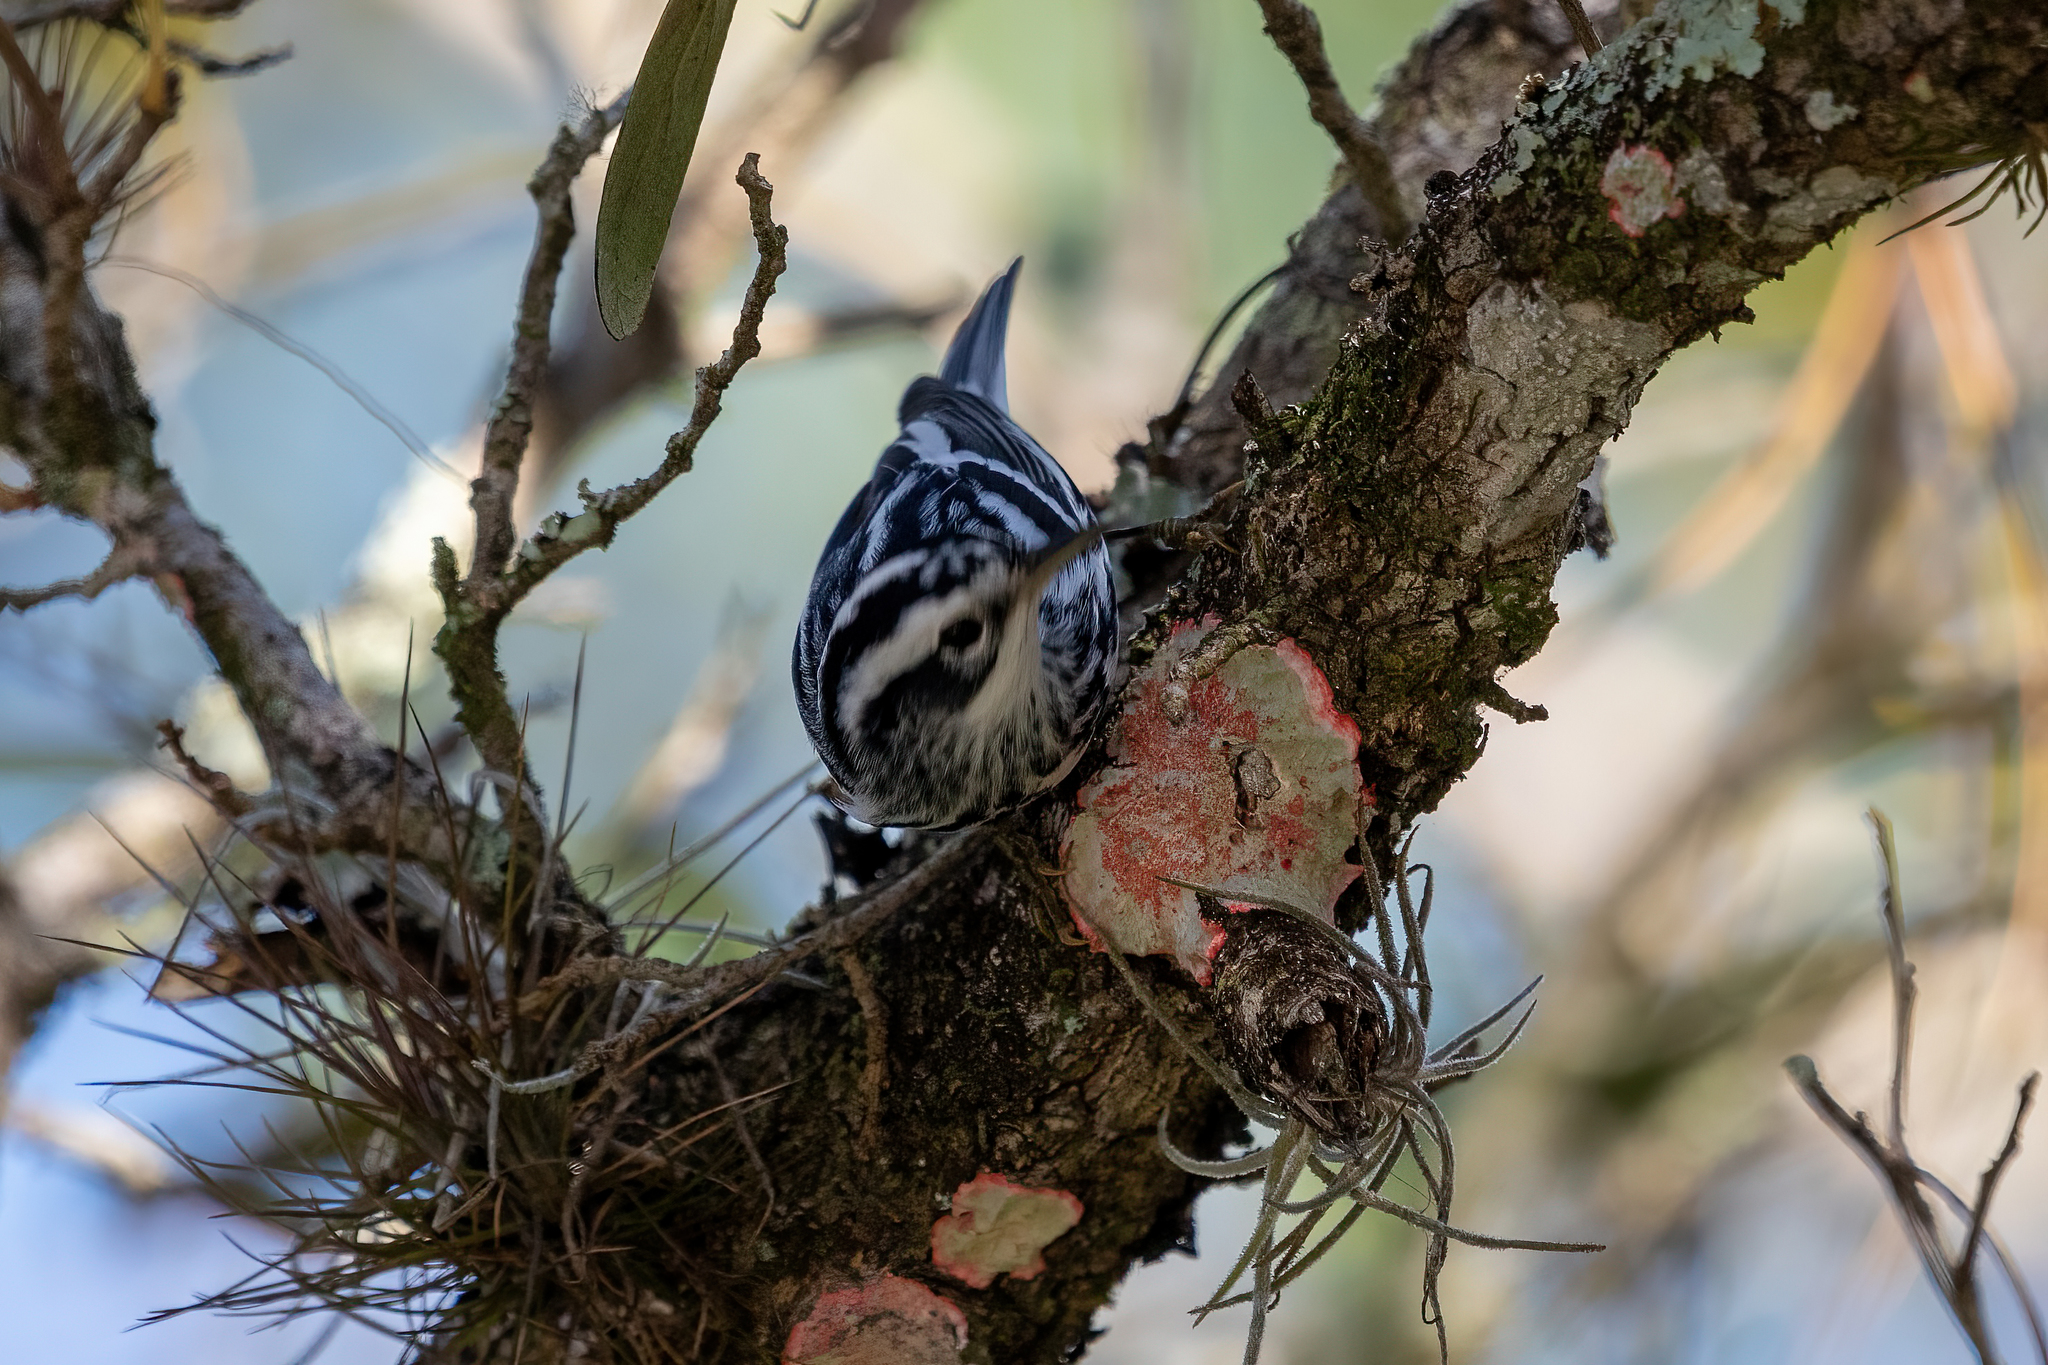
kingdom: Animalia
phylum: Chordata
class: Aves
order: Passeriformes
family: Parulidae
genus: Mniotilta
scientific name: Mniotilta varia
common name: Black-and-white warbler
